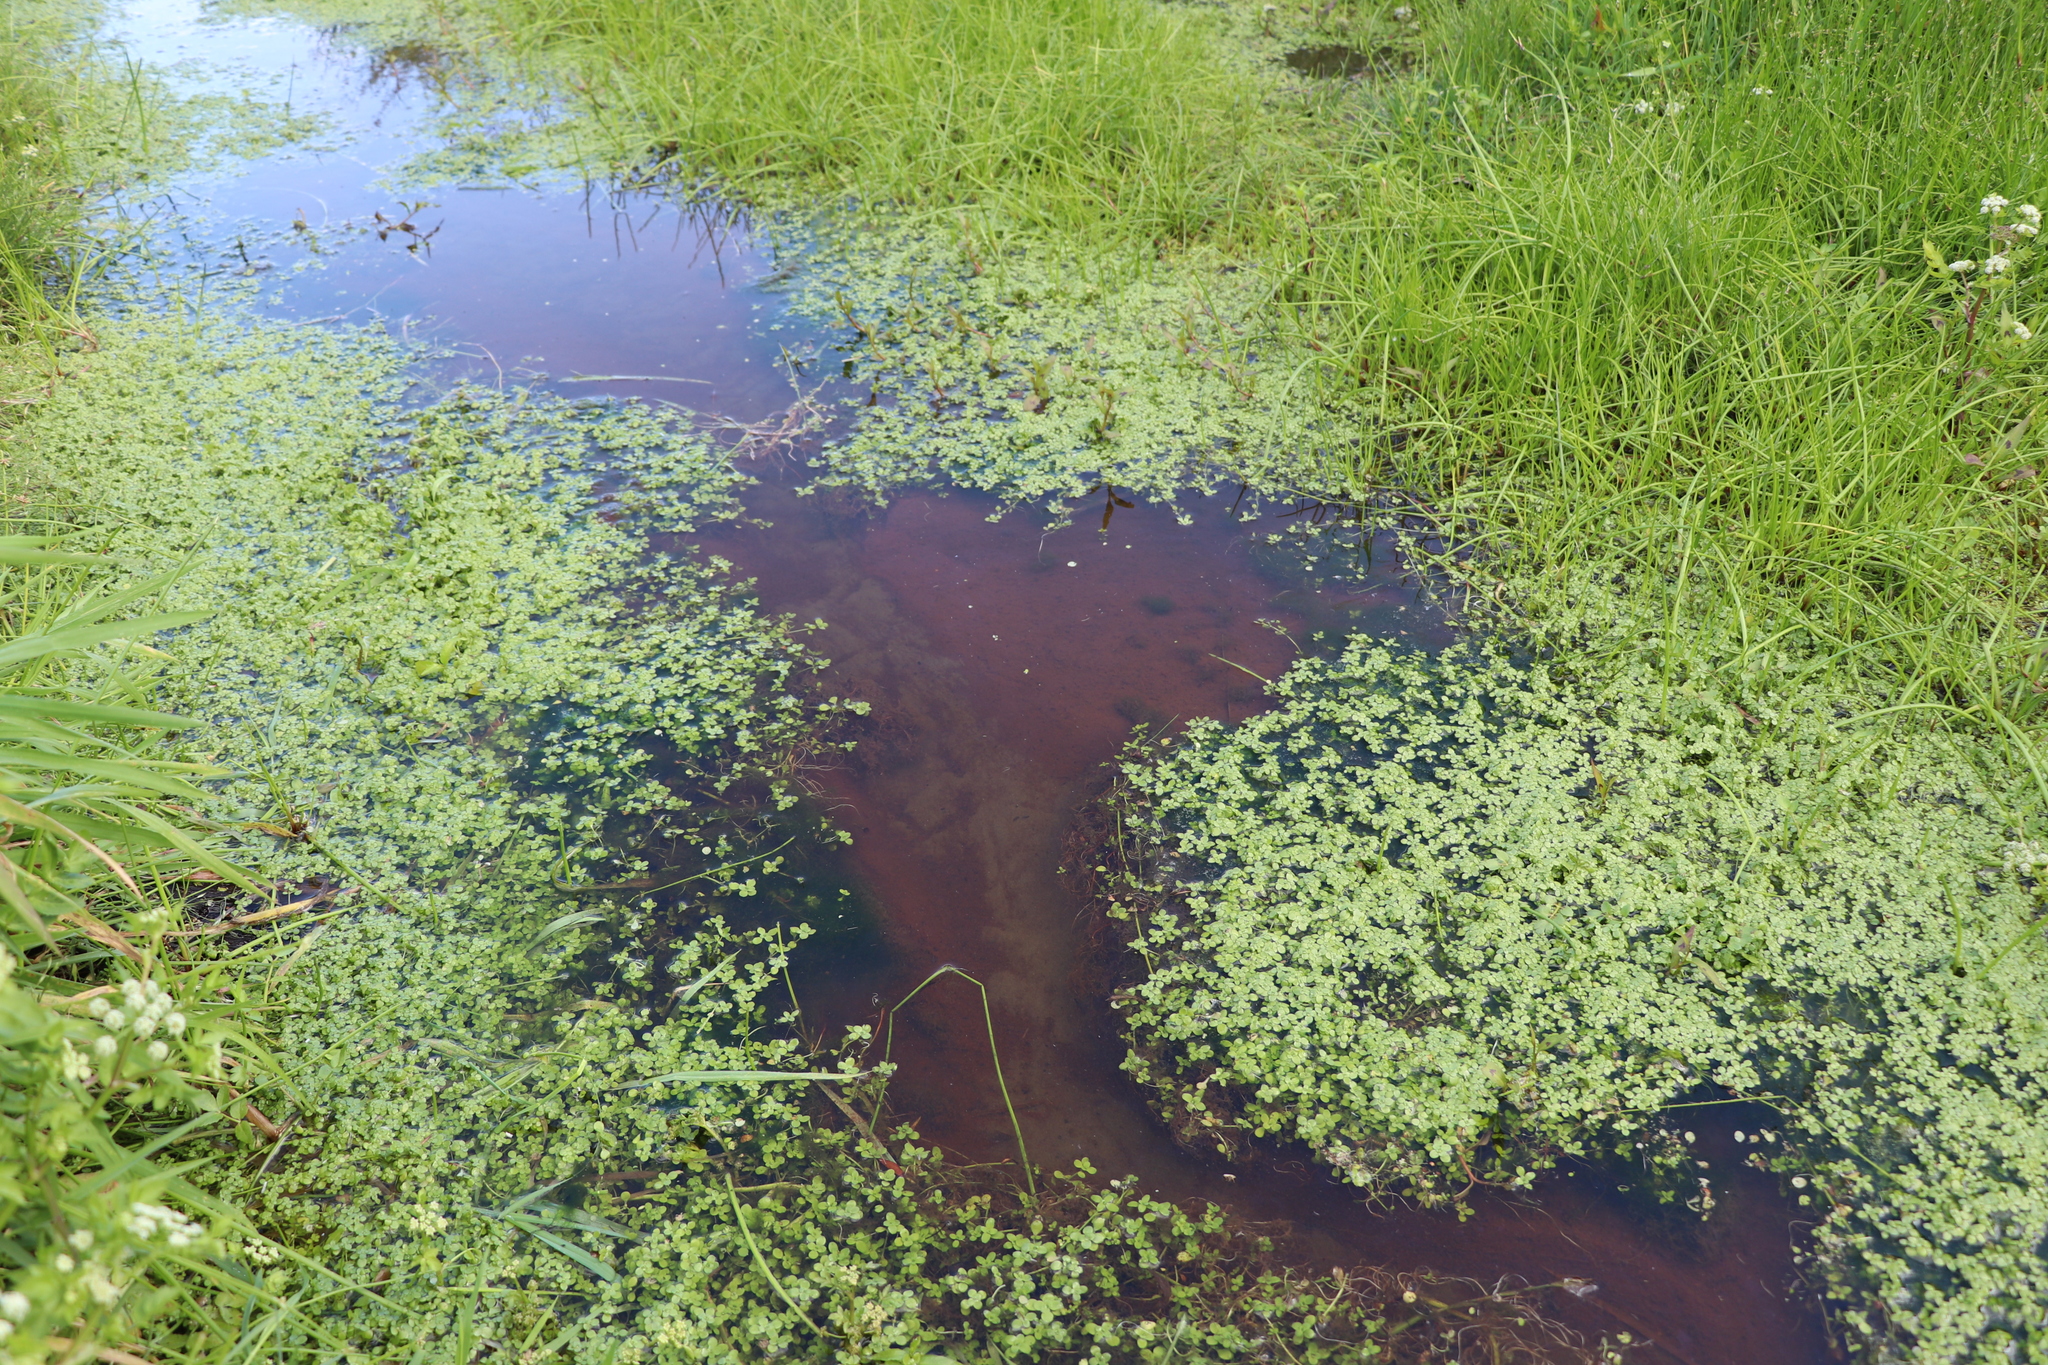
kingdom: Plantae
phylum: Tracheophyta
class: Magnoliopsida
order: Lamiales
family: Plantaginaceae
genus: Callitriche
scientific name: Callitriche stagnalis
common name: Common water-starwort
